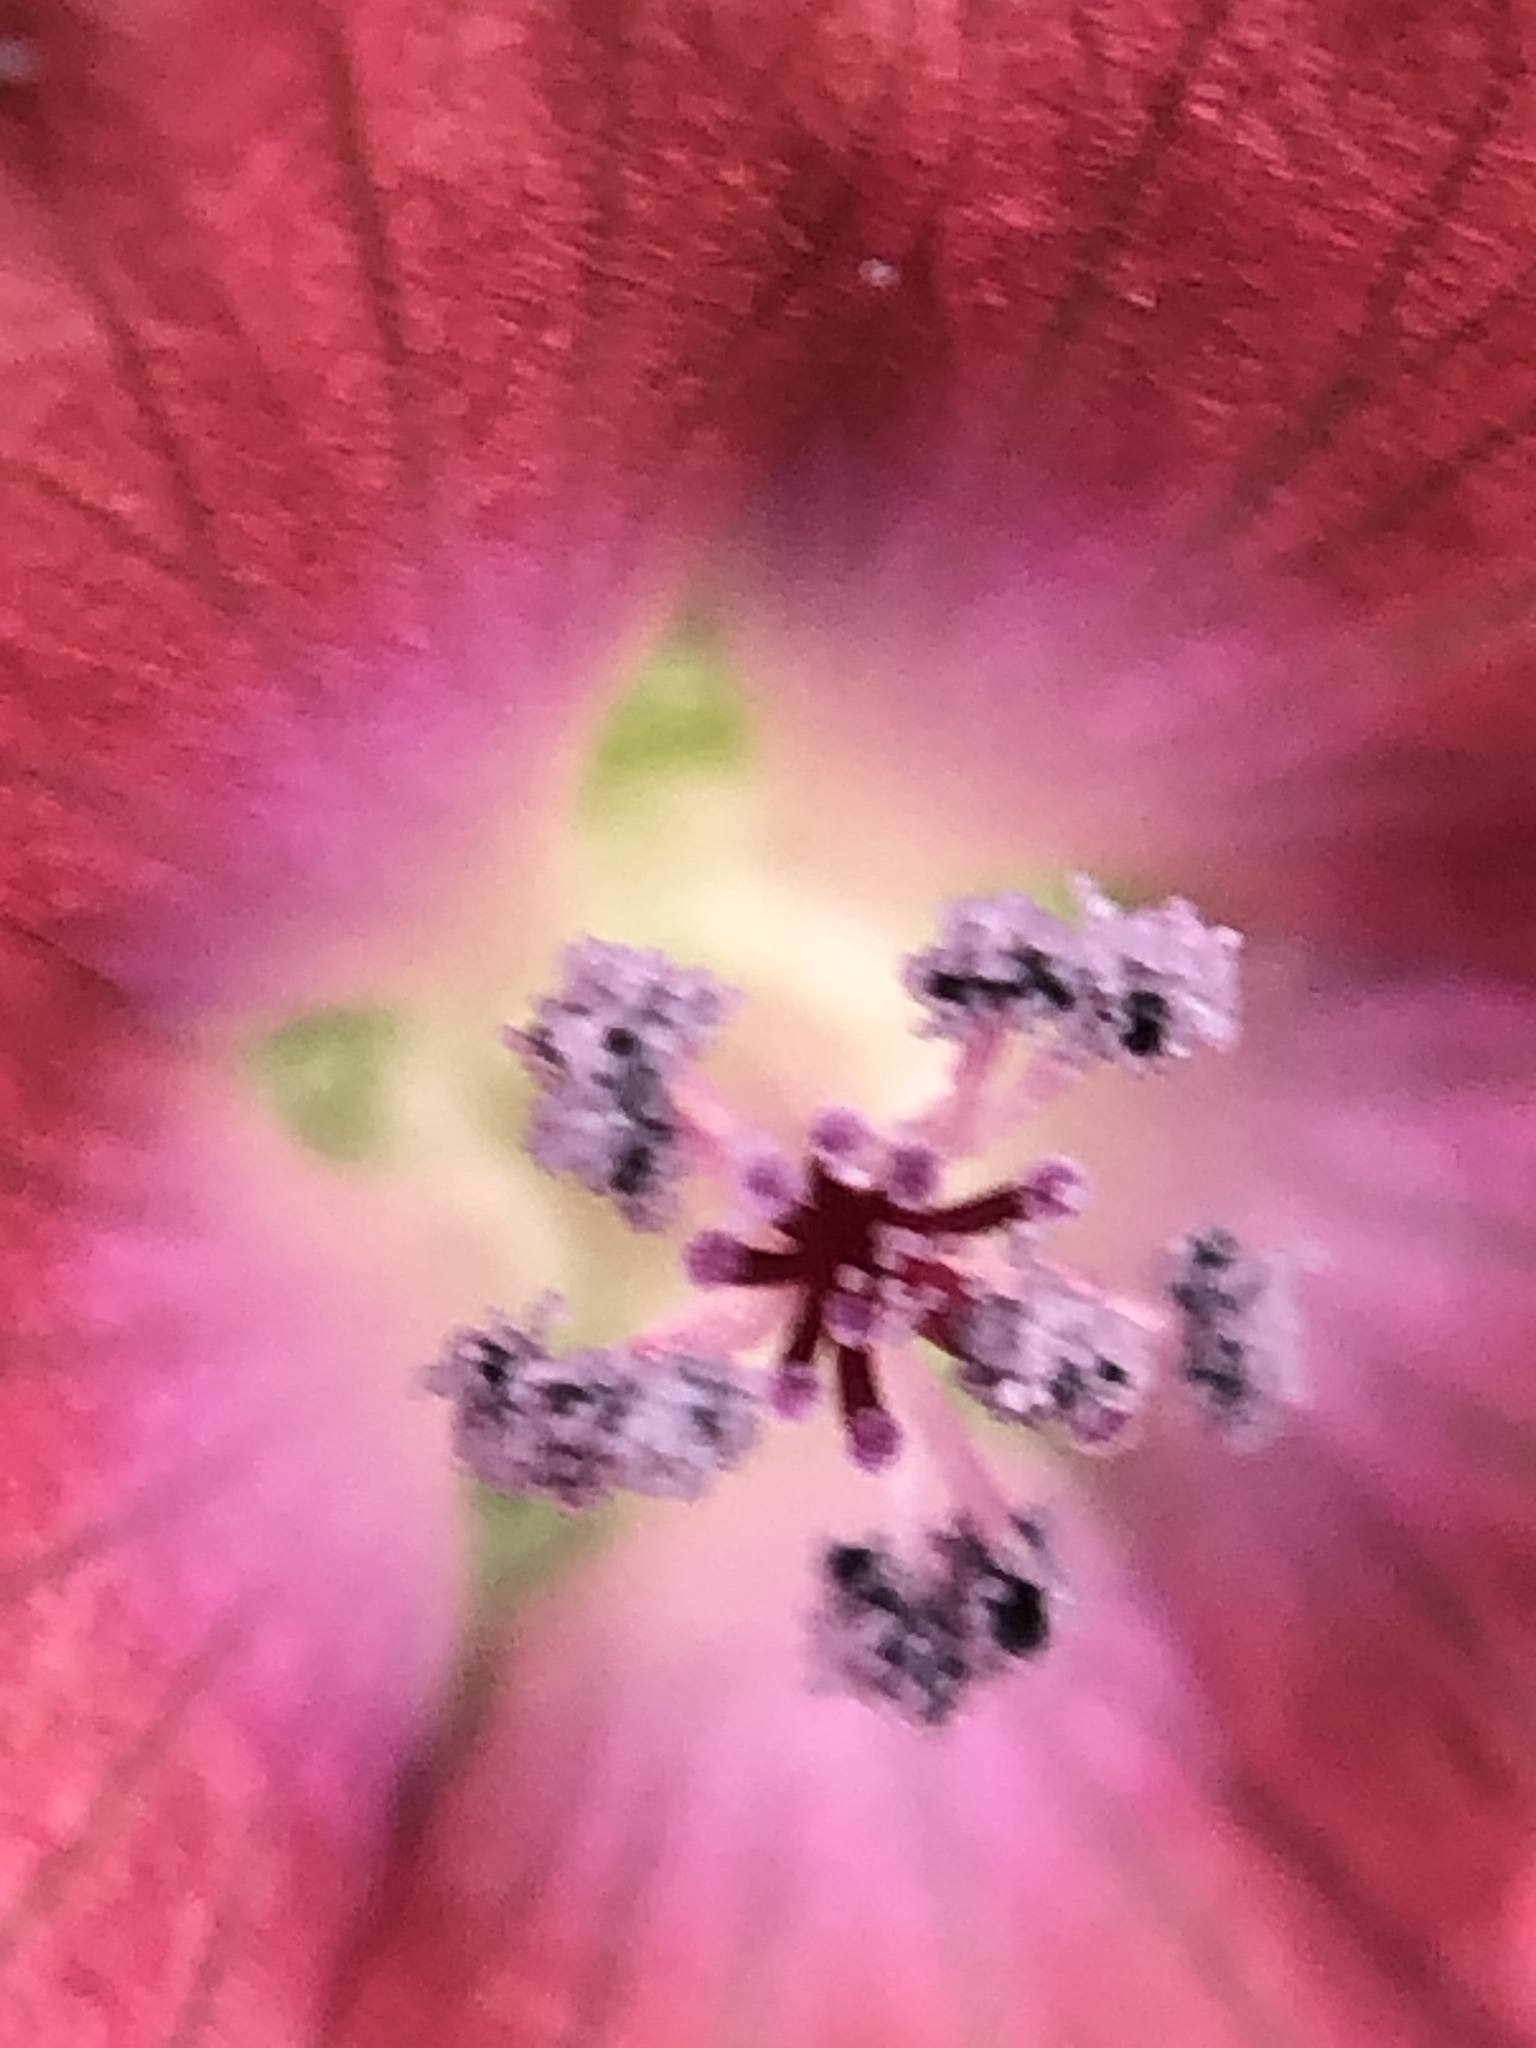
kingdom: Plantae
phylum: Tracheophyta
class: Magnoliopsida
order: Malvales
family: Malvaceae
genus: Fuertesimalva
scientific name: Fuertesimalva peruviana
